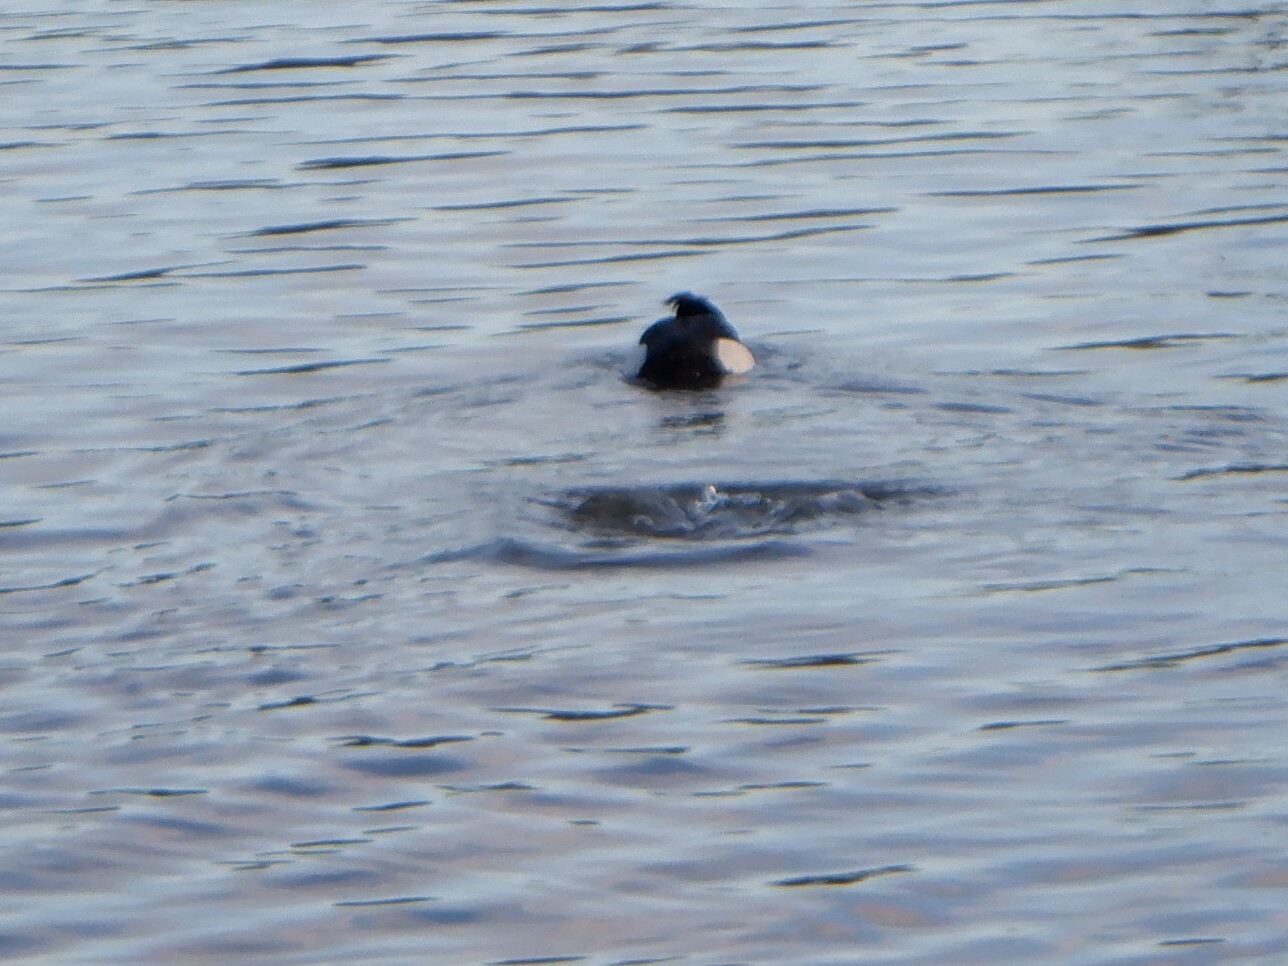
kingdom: Animalia
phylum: Chordata
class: Aves
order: Anseriformes
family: Anatidae
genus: Aythya
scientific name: Aythya fuligula
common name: Tufted duck
